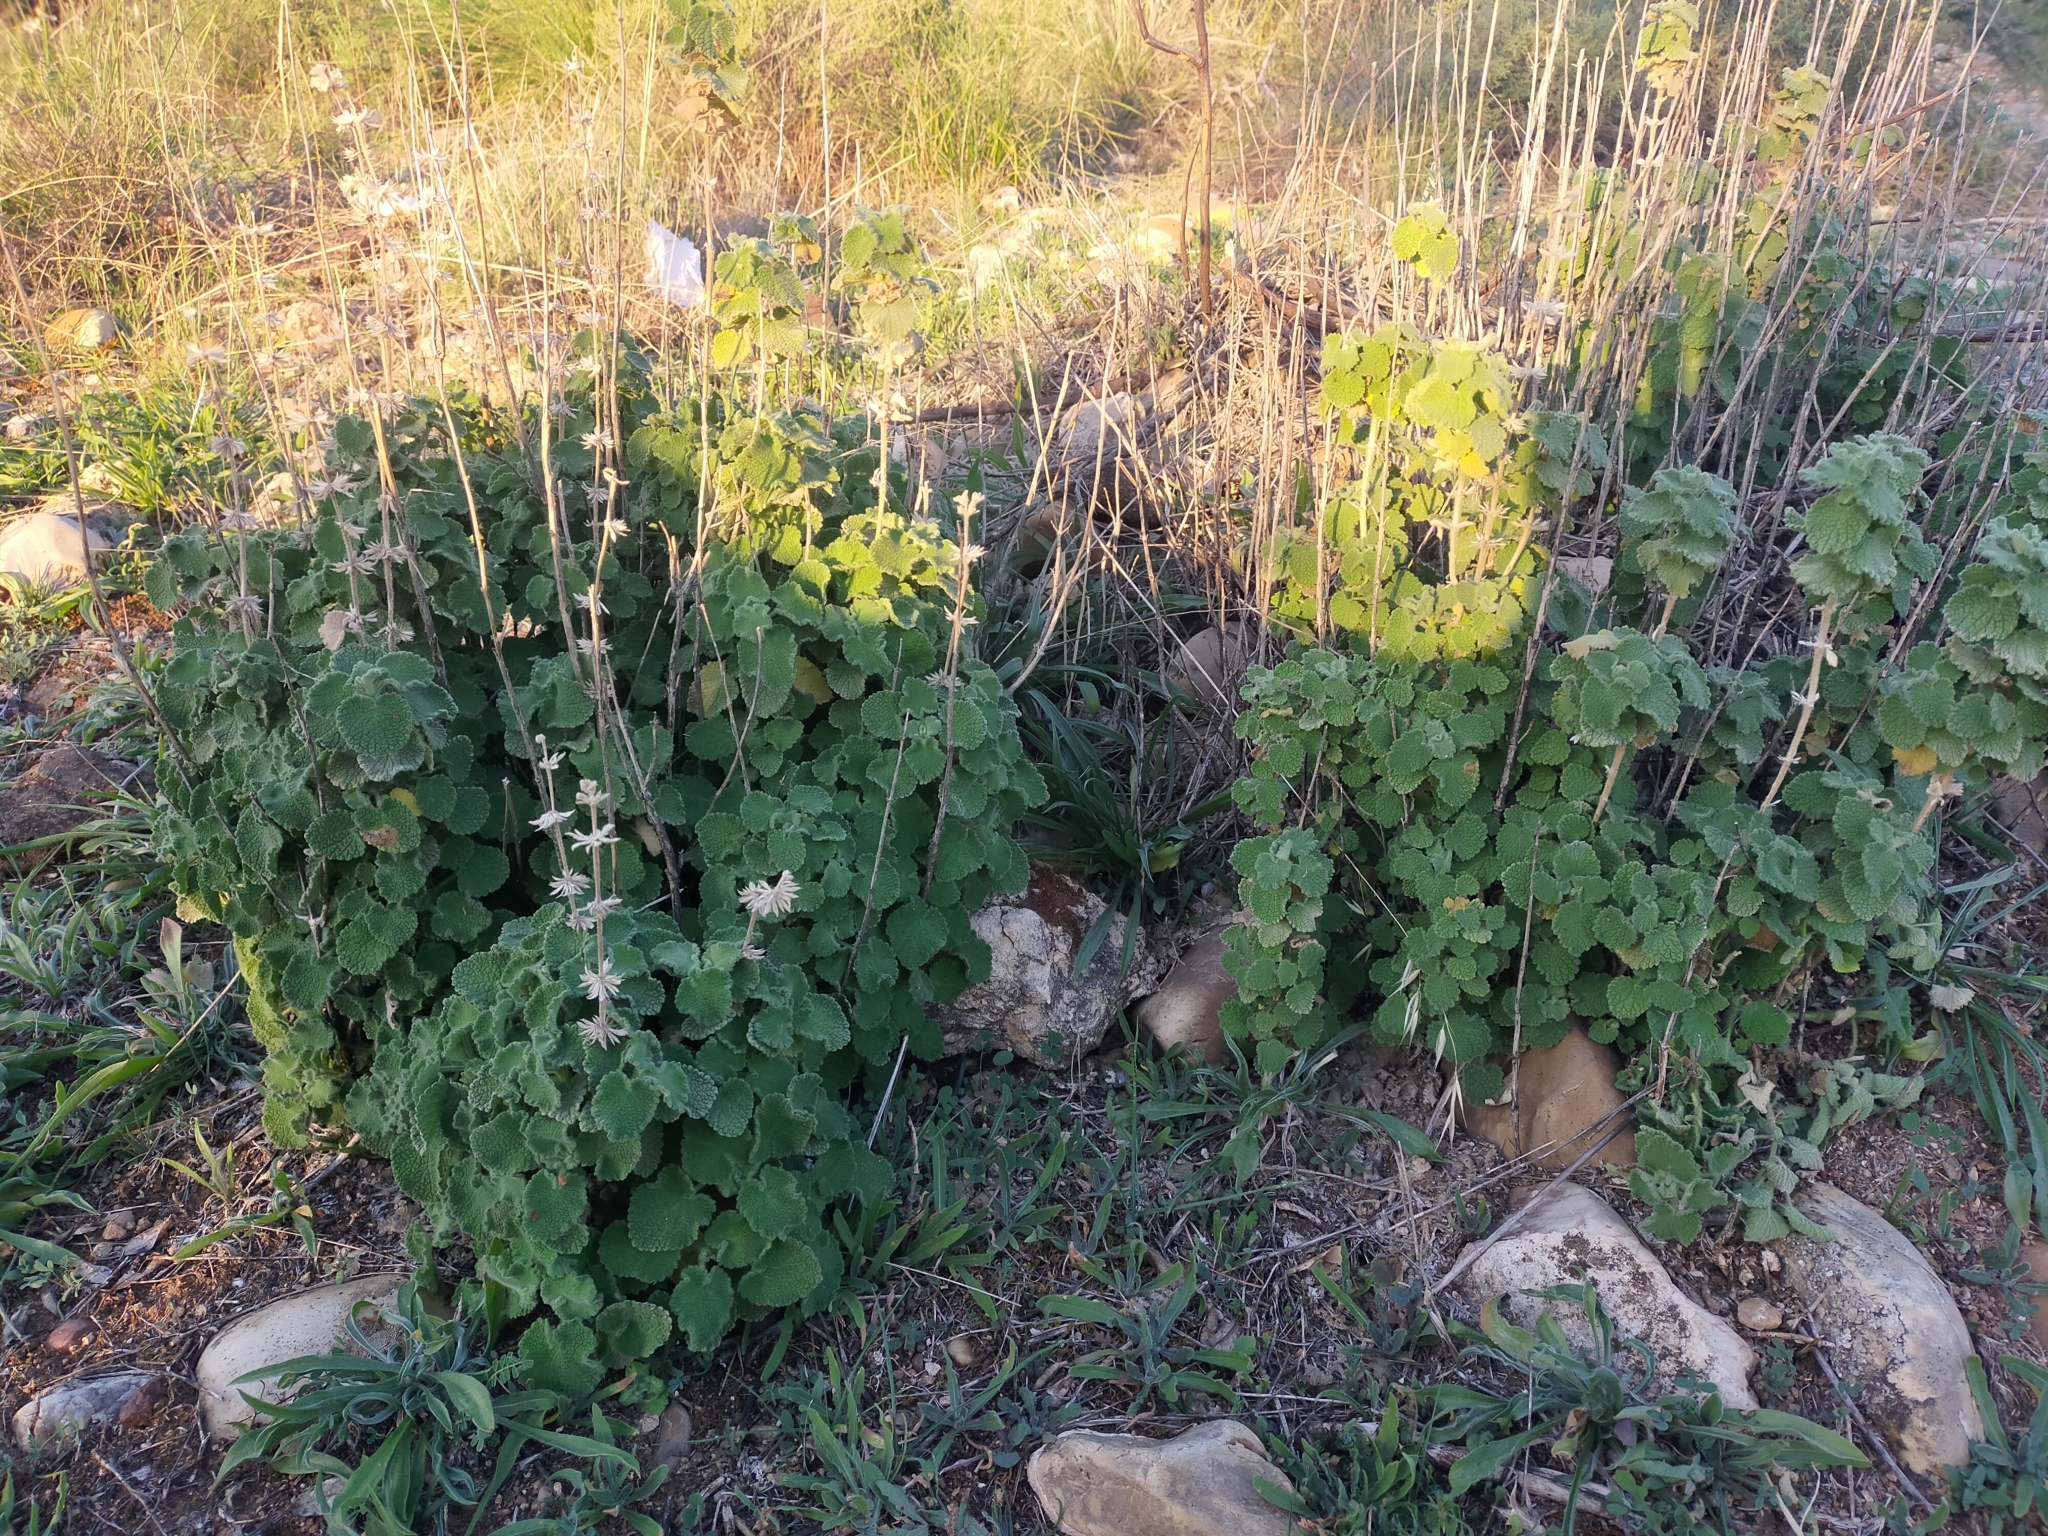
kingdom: Plantae
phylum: Tracheophyta
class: Magnoliopsida
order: Lamiales
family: Lamiaceae
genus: Pseudodictamnus
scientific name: Pseudodictamnus hirsutus
